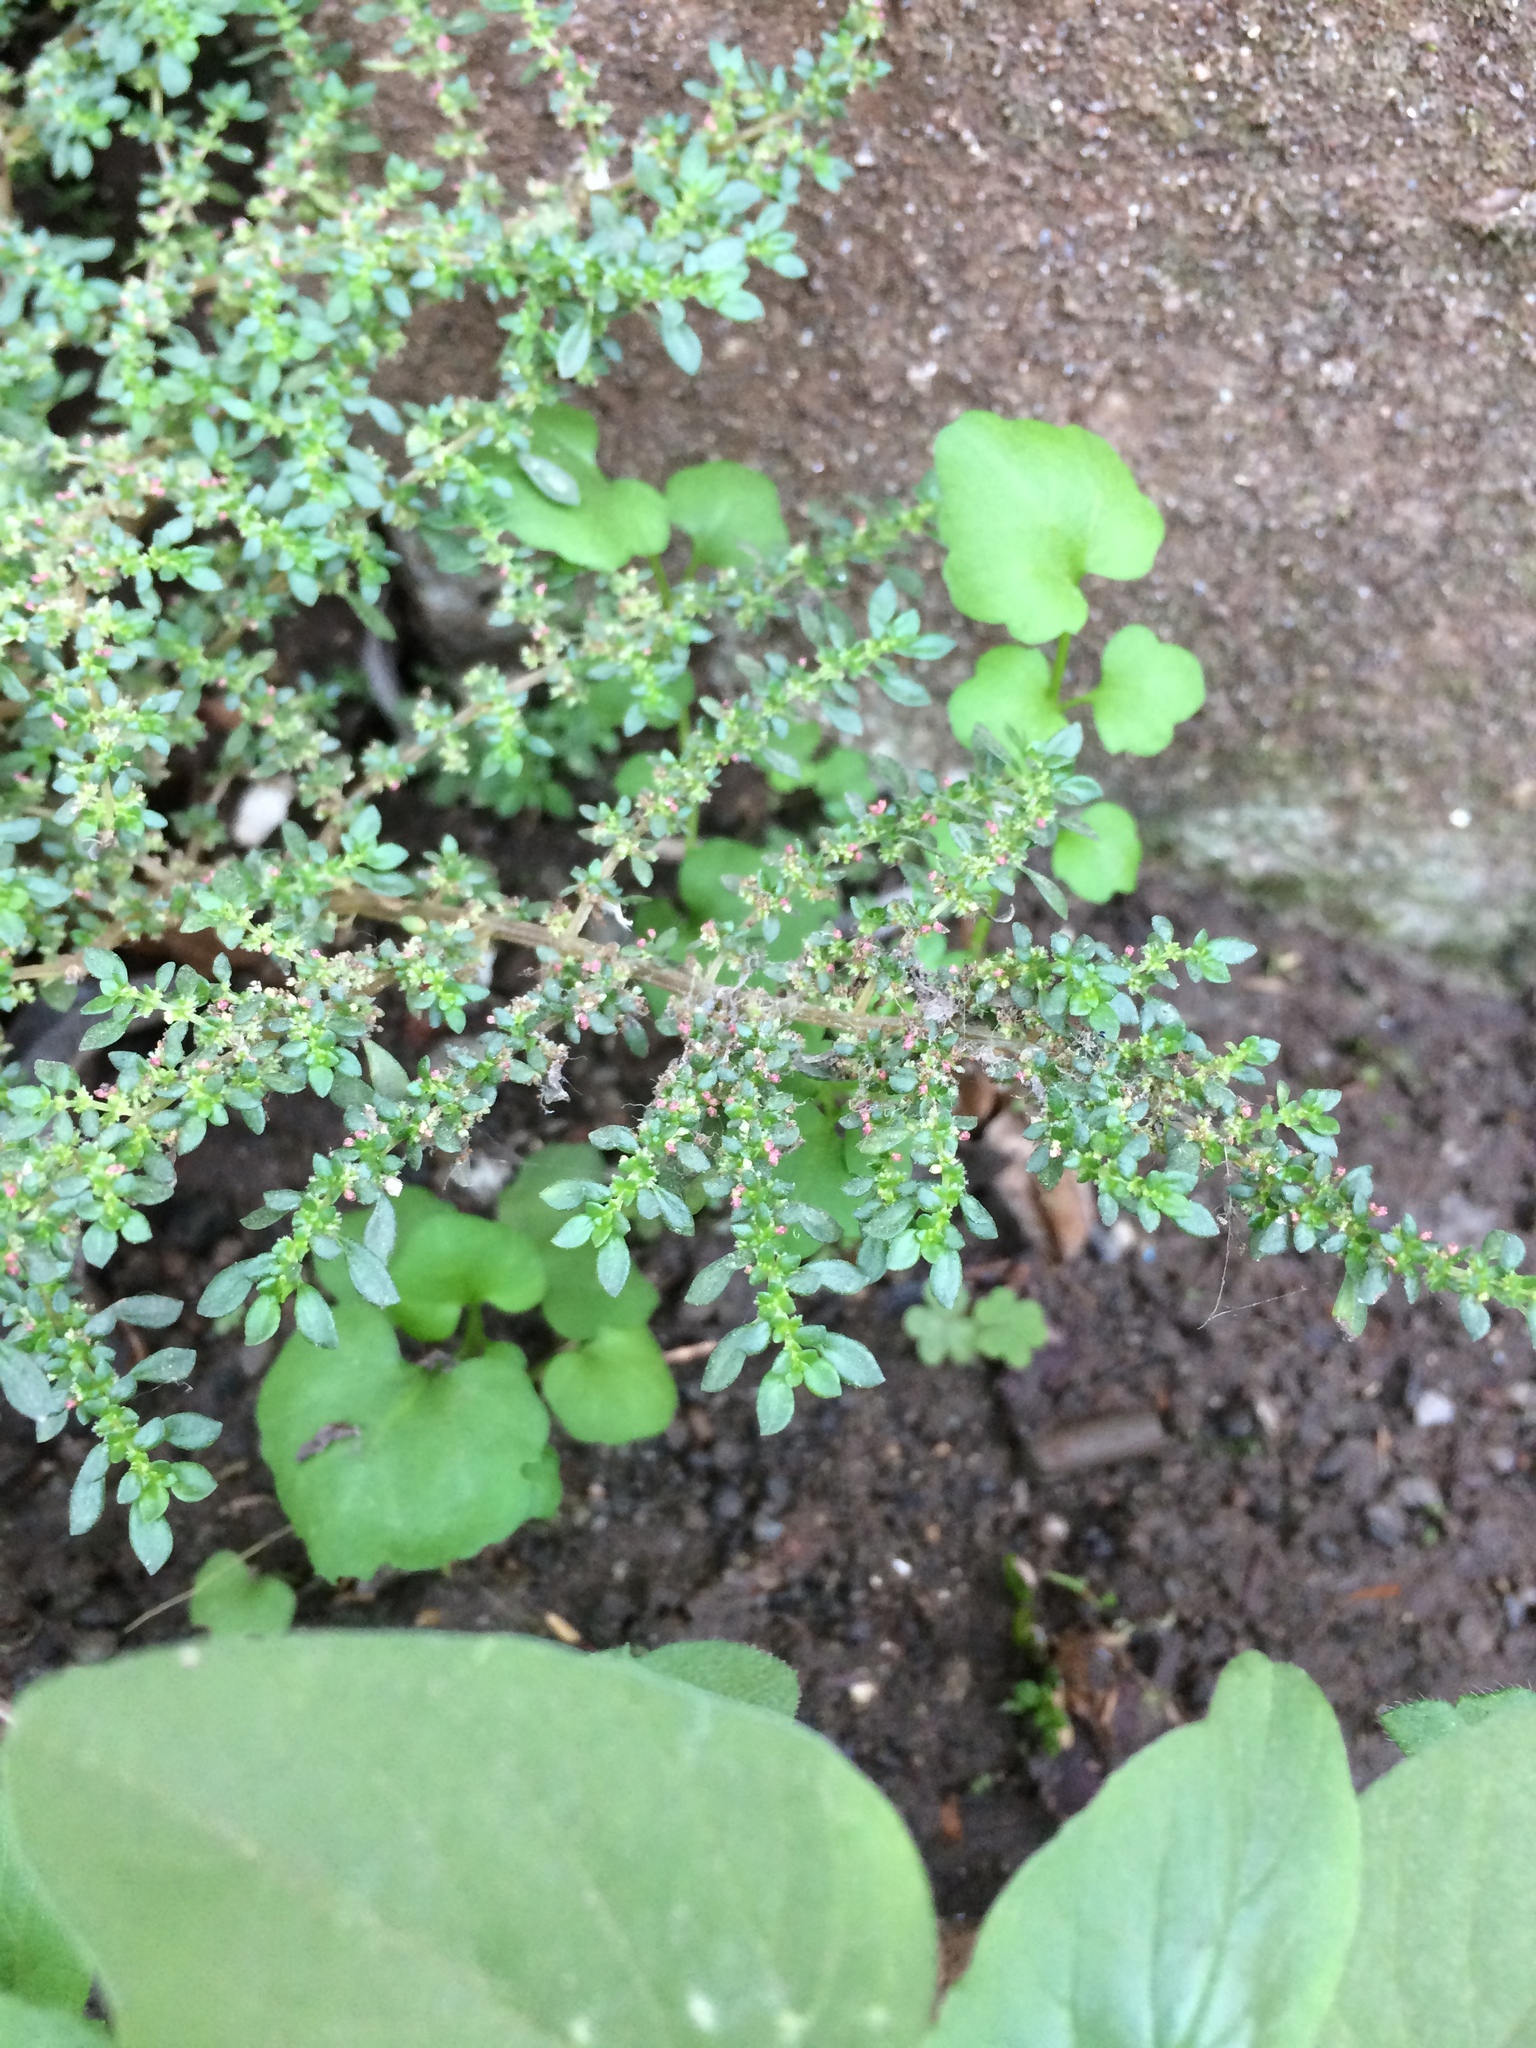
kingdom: Plantae
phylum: Tracheophyta
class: Magnoliopsida
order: Rosales
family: Urticaceae
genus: Pilea
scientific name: Pilea microphylla
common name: Artillery-plant
